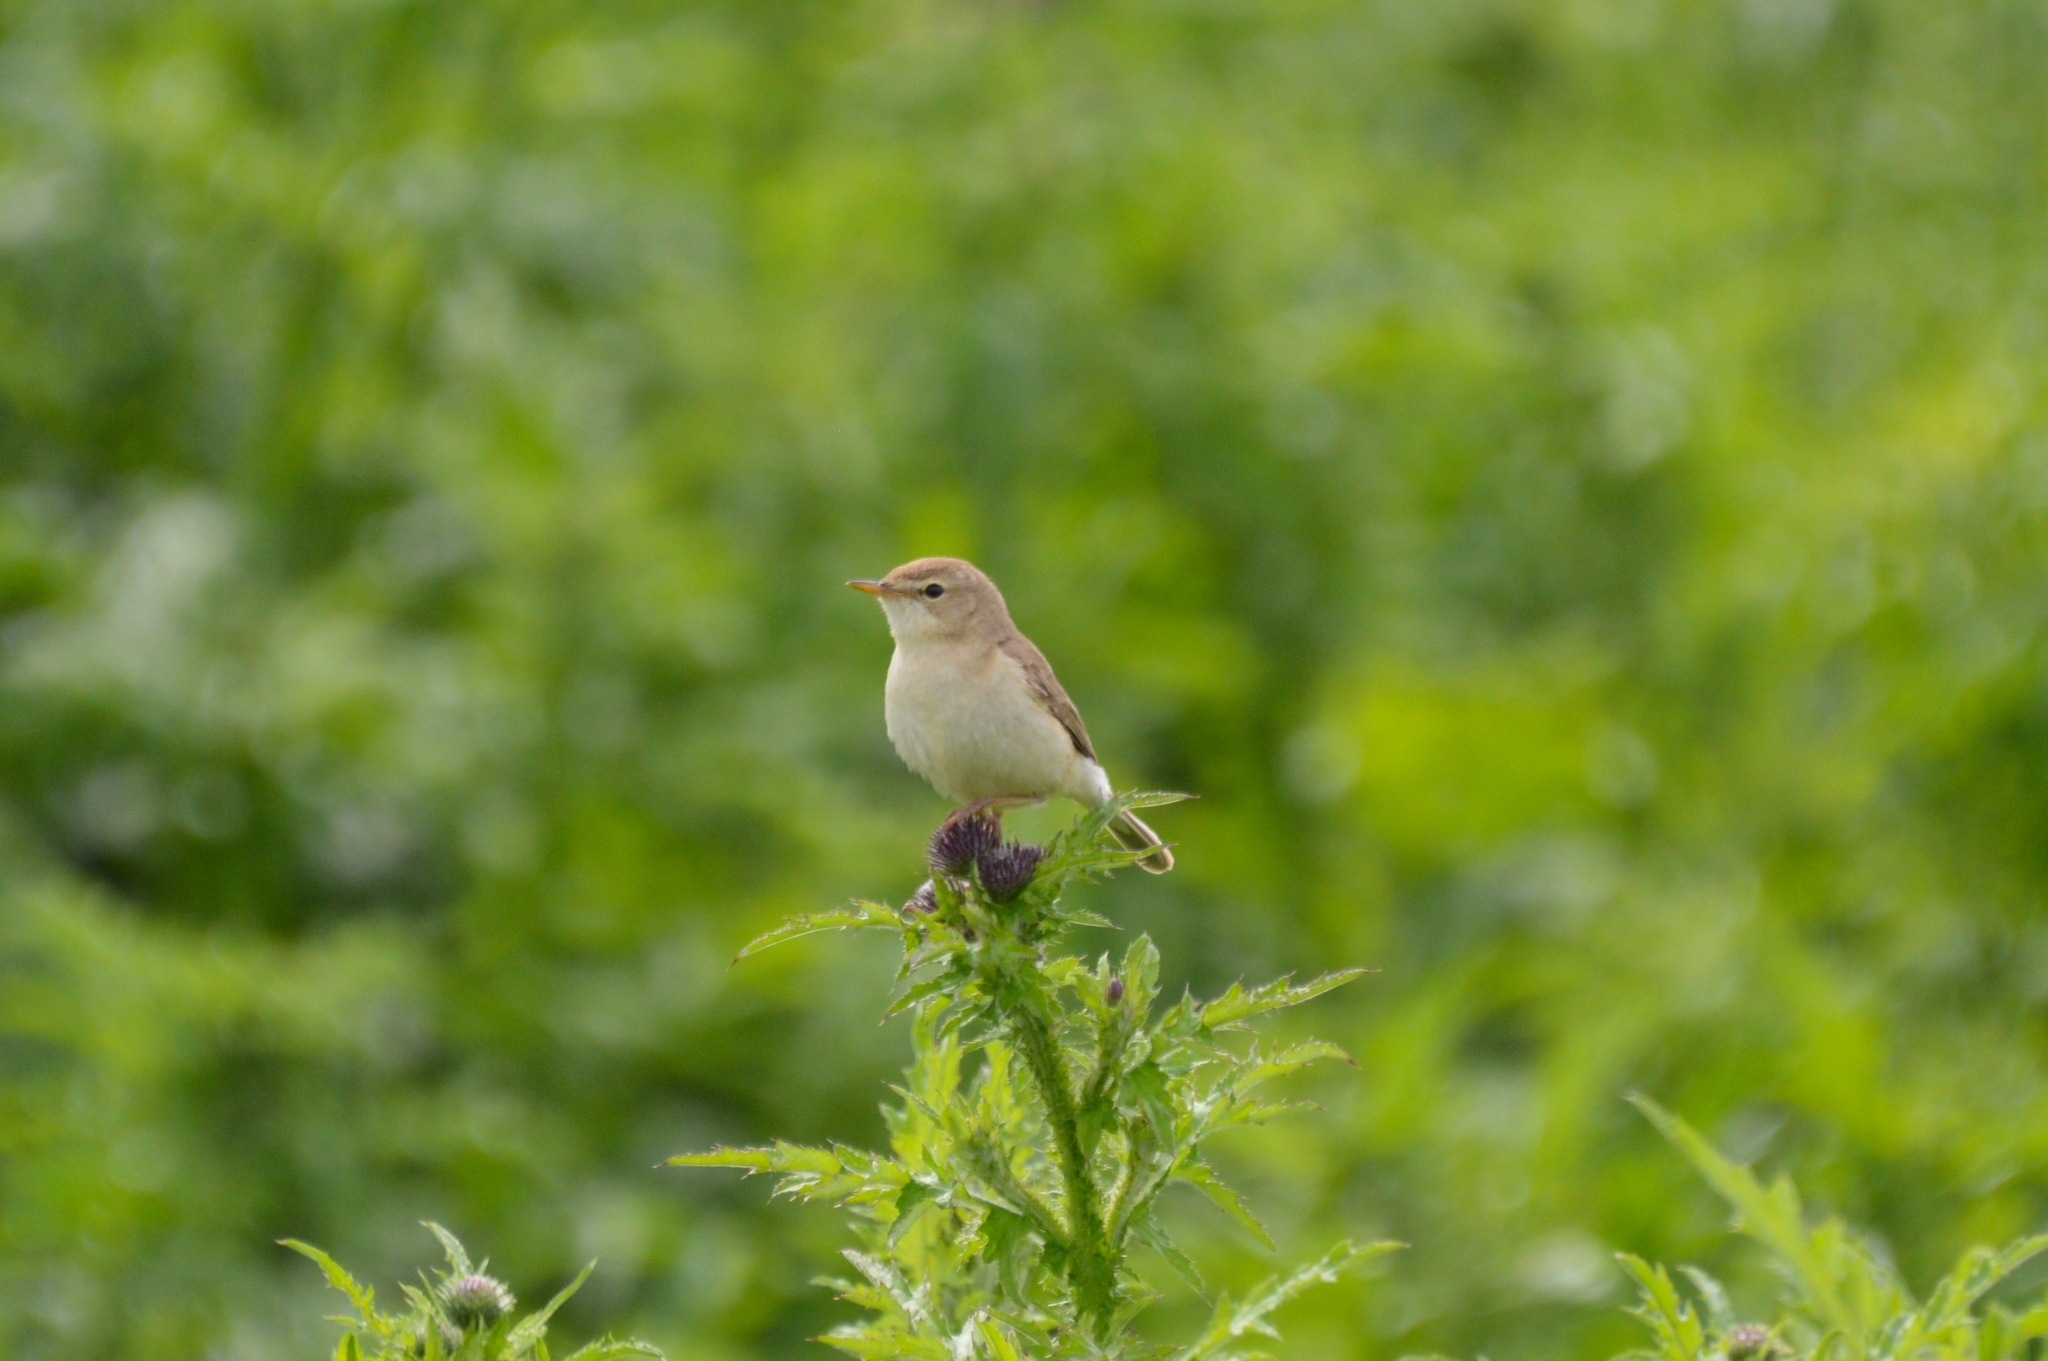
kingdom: Animalia
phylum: Chordata
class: Aves
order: Passeriformes
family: Acrocephalidae
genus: Iduna
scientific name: Iduna caligata
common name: Booted warbler
